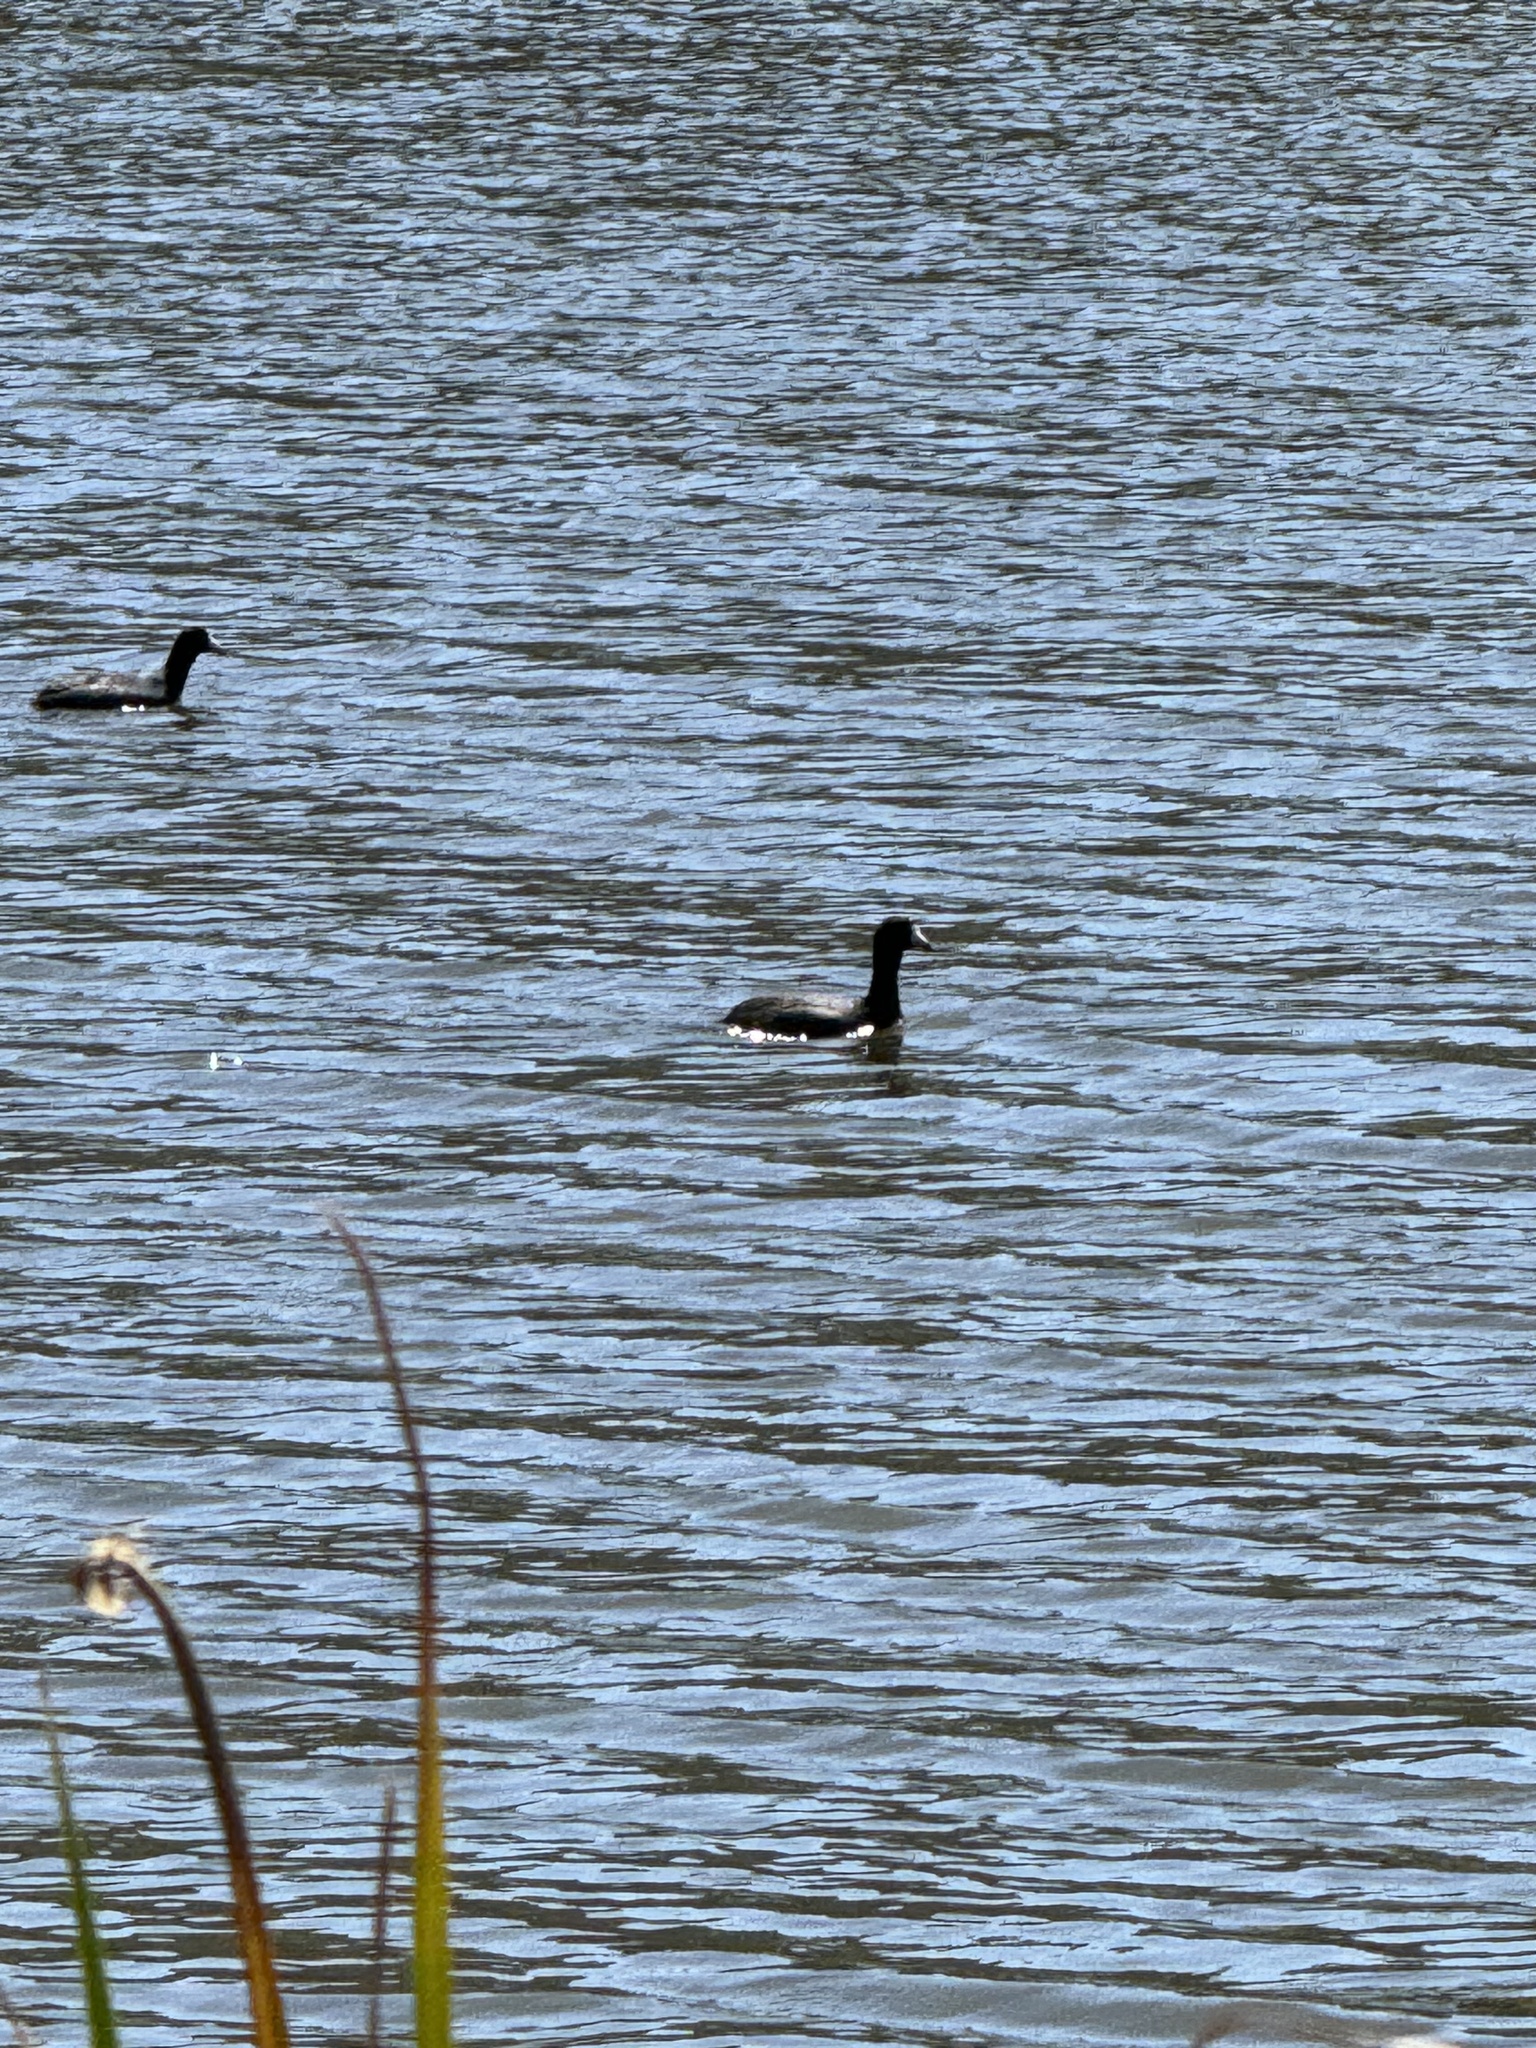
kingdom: Animalia
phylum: Chordata
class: Aves
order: Gruiformes
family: Rallidae
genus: Fulica
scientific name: Fulica americana
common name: American coot
